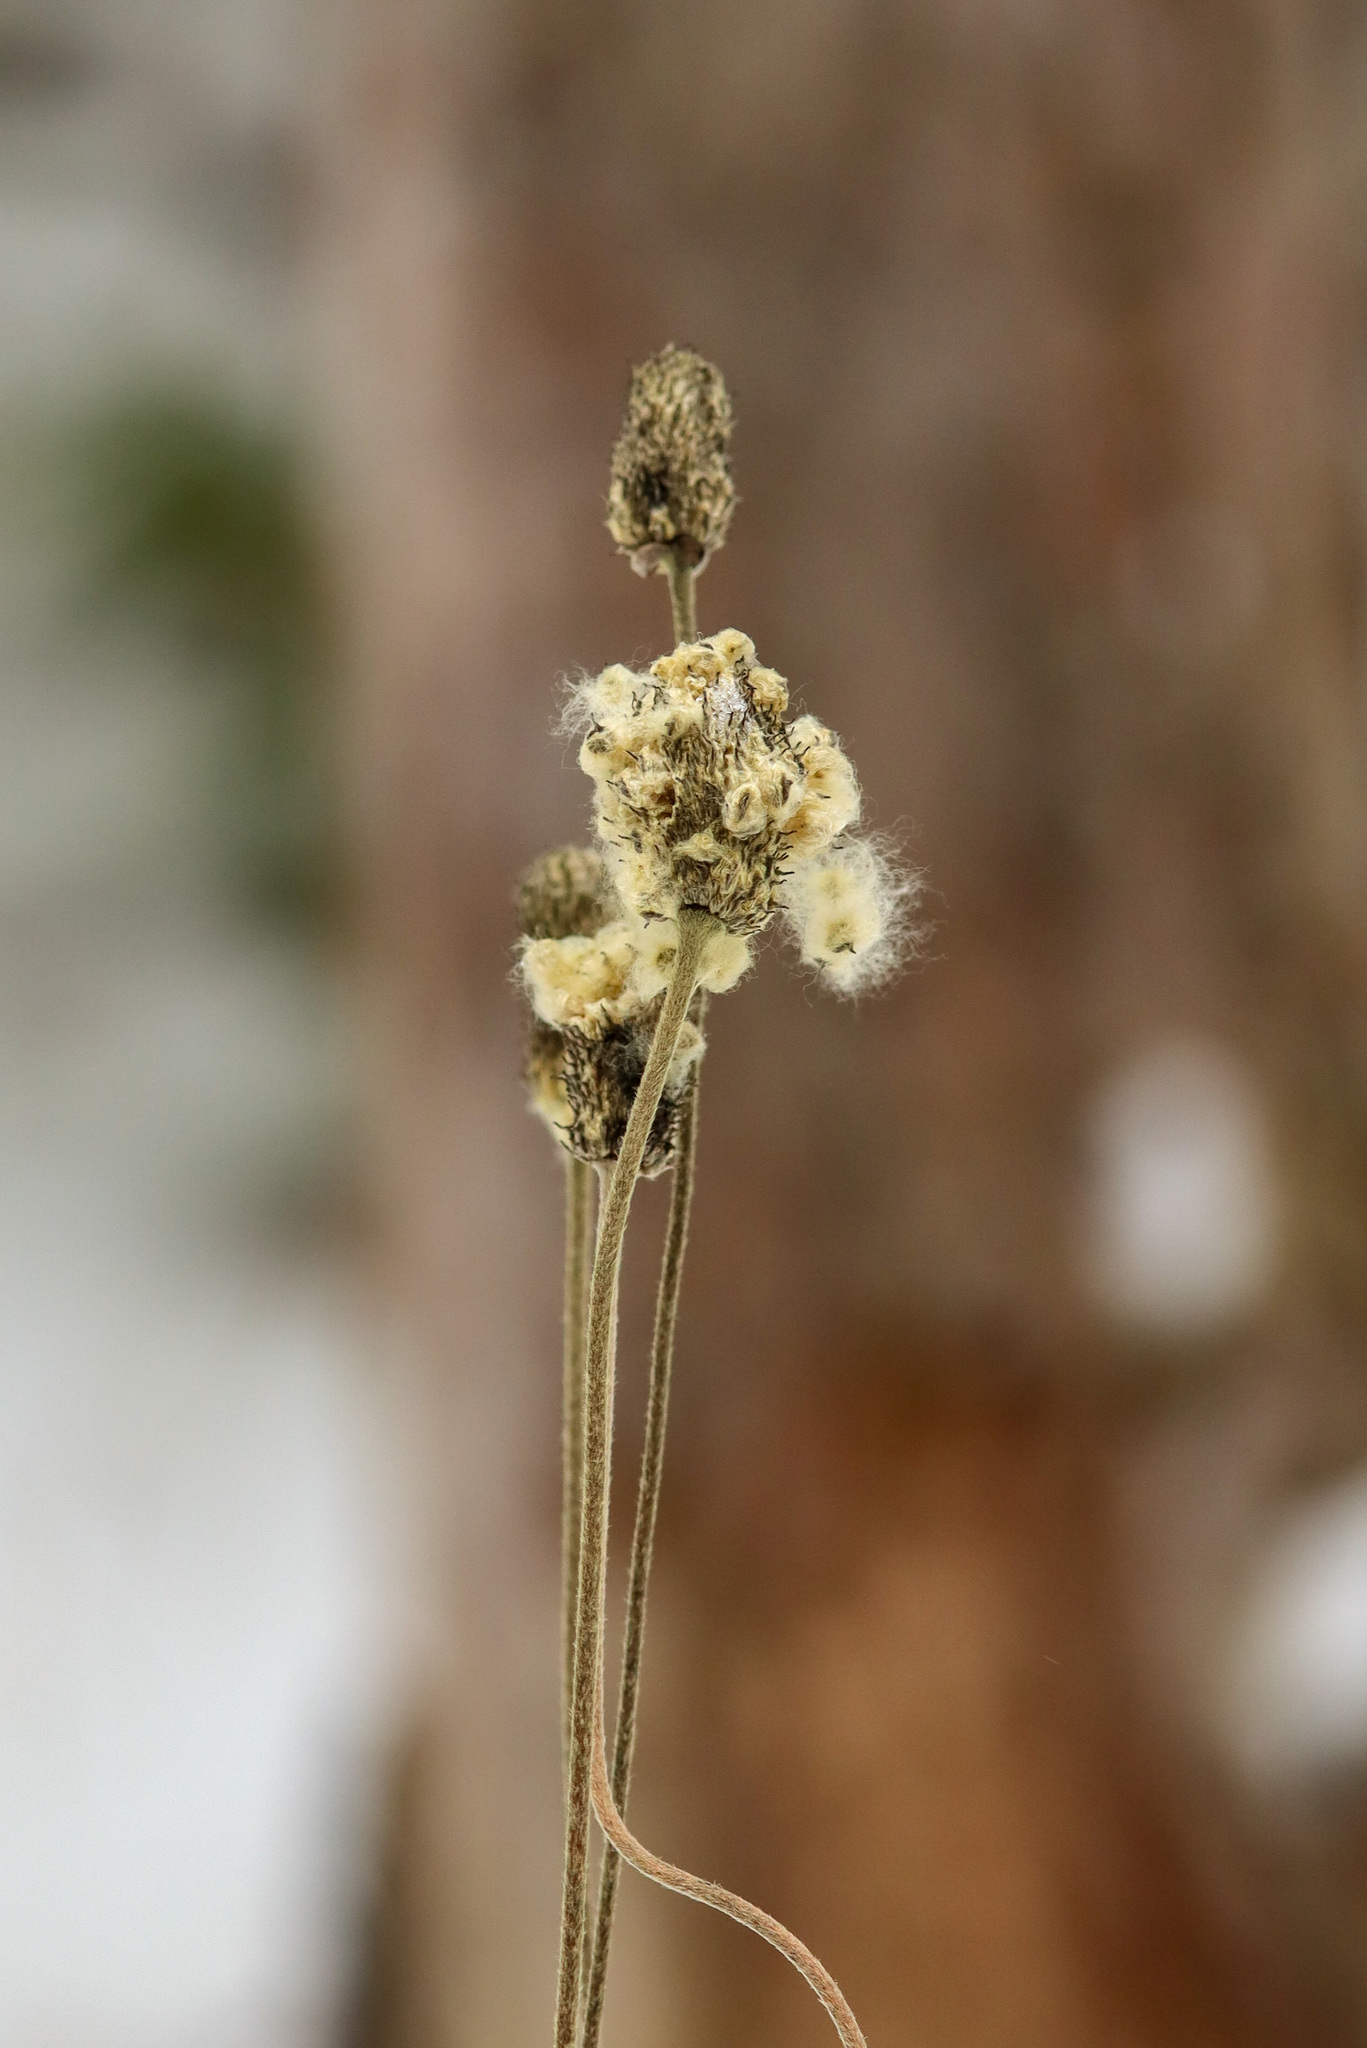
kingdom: Plantae
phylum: Tracheophyta
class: Magnoliopsida
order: Ranunculales
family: Ranunculaceae
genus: Anemone
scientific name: Anemone virginiana
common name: Tall anemone
